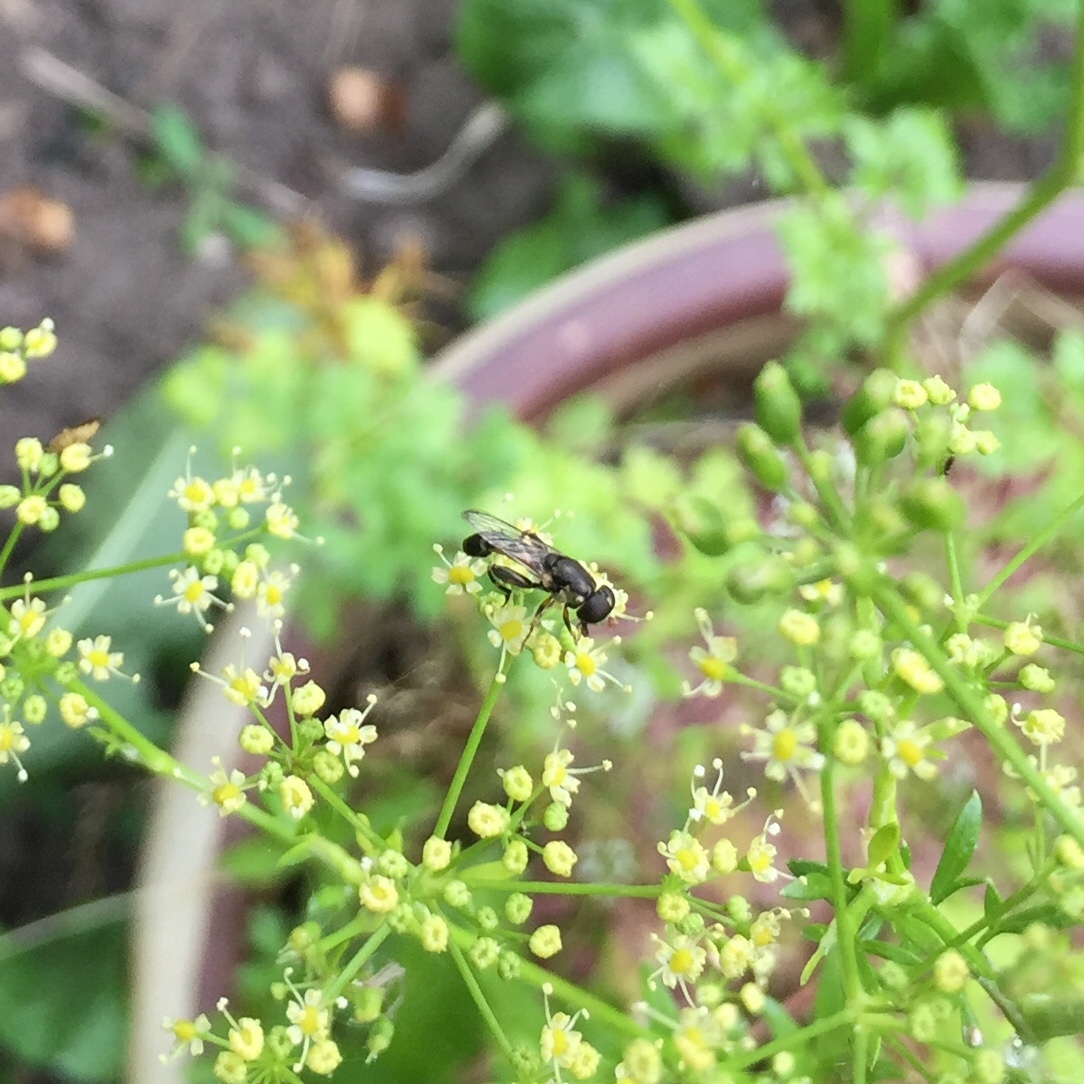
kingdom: Animalia
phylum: Arthropoda
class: Insecta
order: Diptera
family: Syrphidae
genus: Syritta
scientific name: Syritta pipiens
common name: Hover fly
